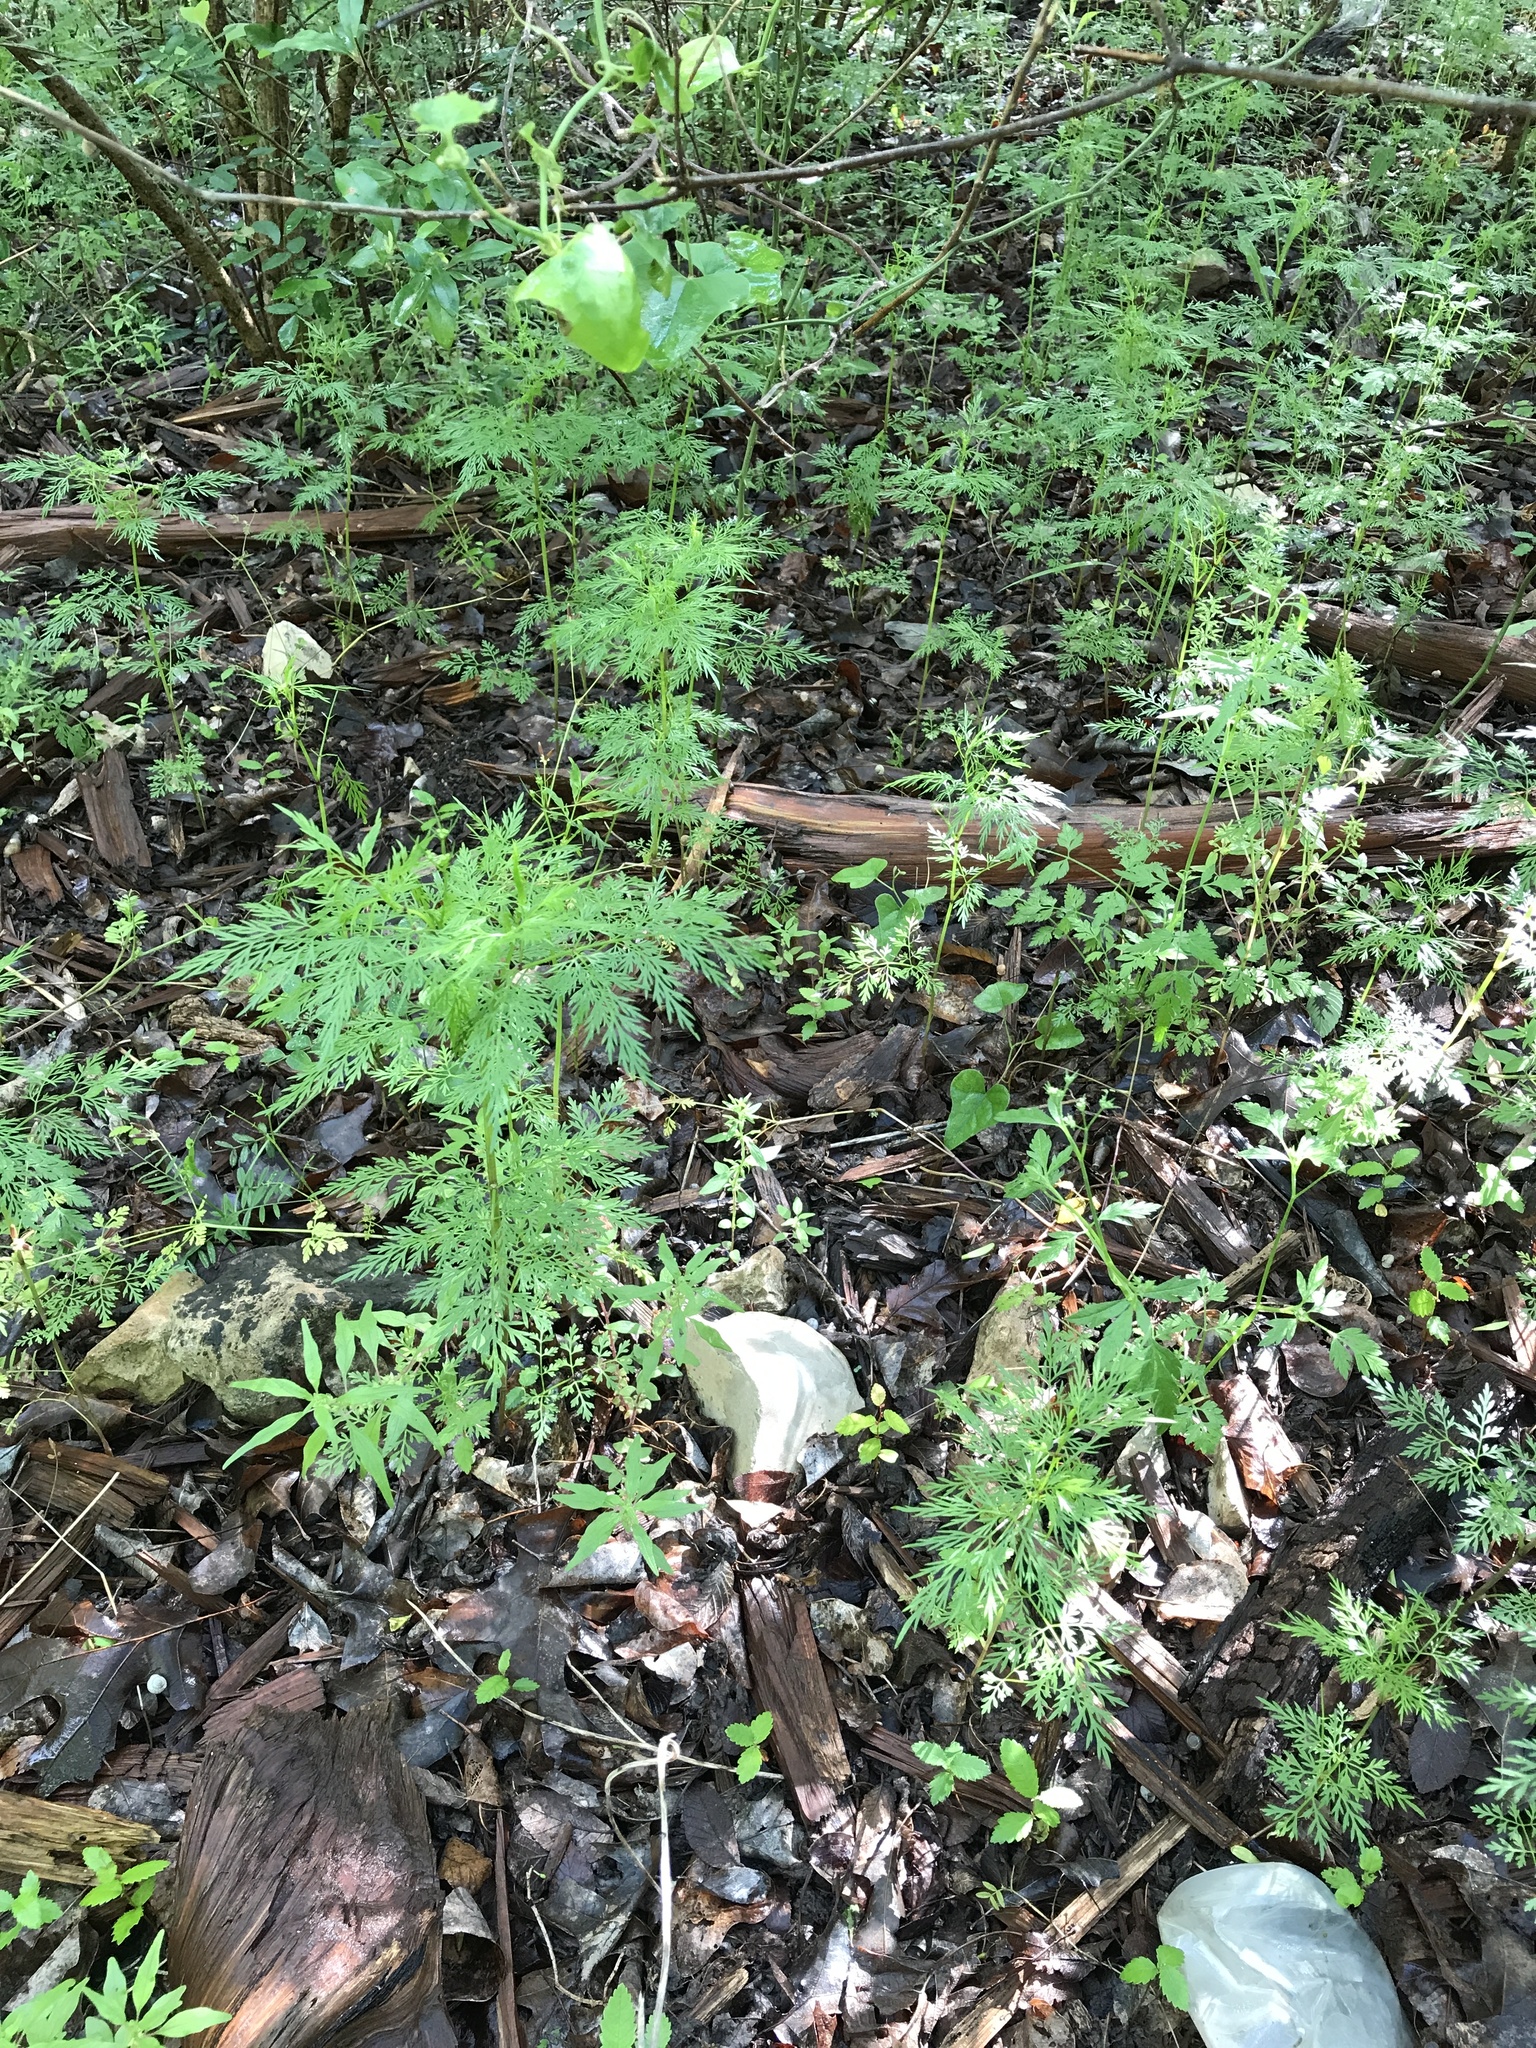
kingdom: Plantae
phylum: Tracheophyta
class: Magnoliopsida
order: Apiales
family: Apiaceae
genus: Trepocarpus
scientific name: Trepocarpus aethusae
